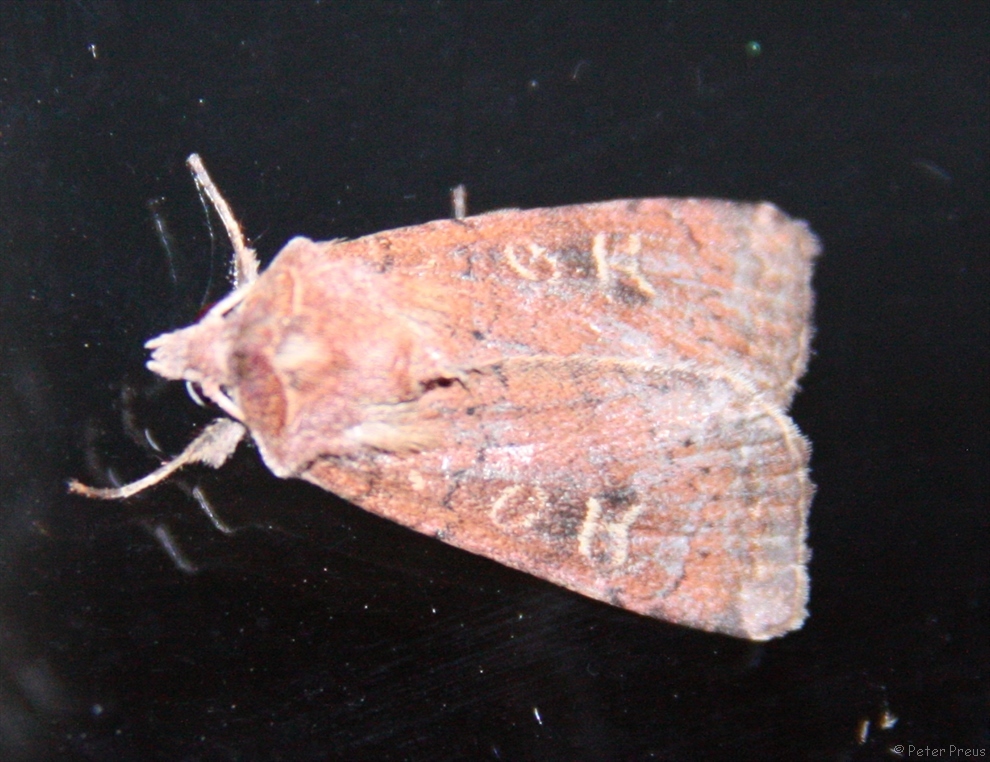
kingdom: Animalia
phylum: Arthropoda
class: Insecta
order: Lepidoptera
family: Noctuidae
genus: Xestia
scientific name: Xestia xanthographa
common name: Square-spot rustic
